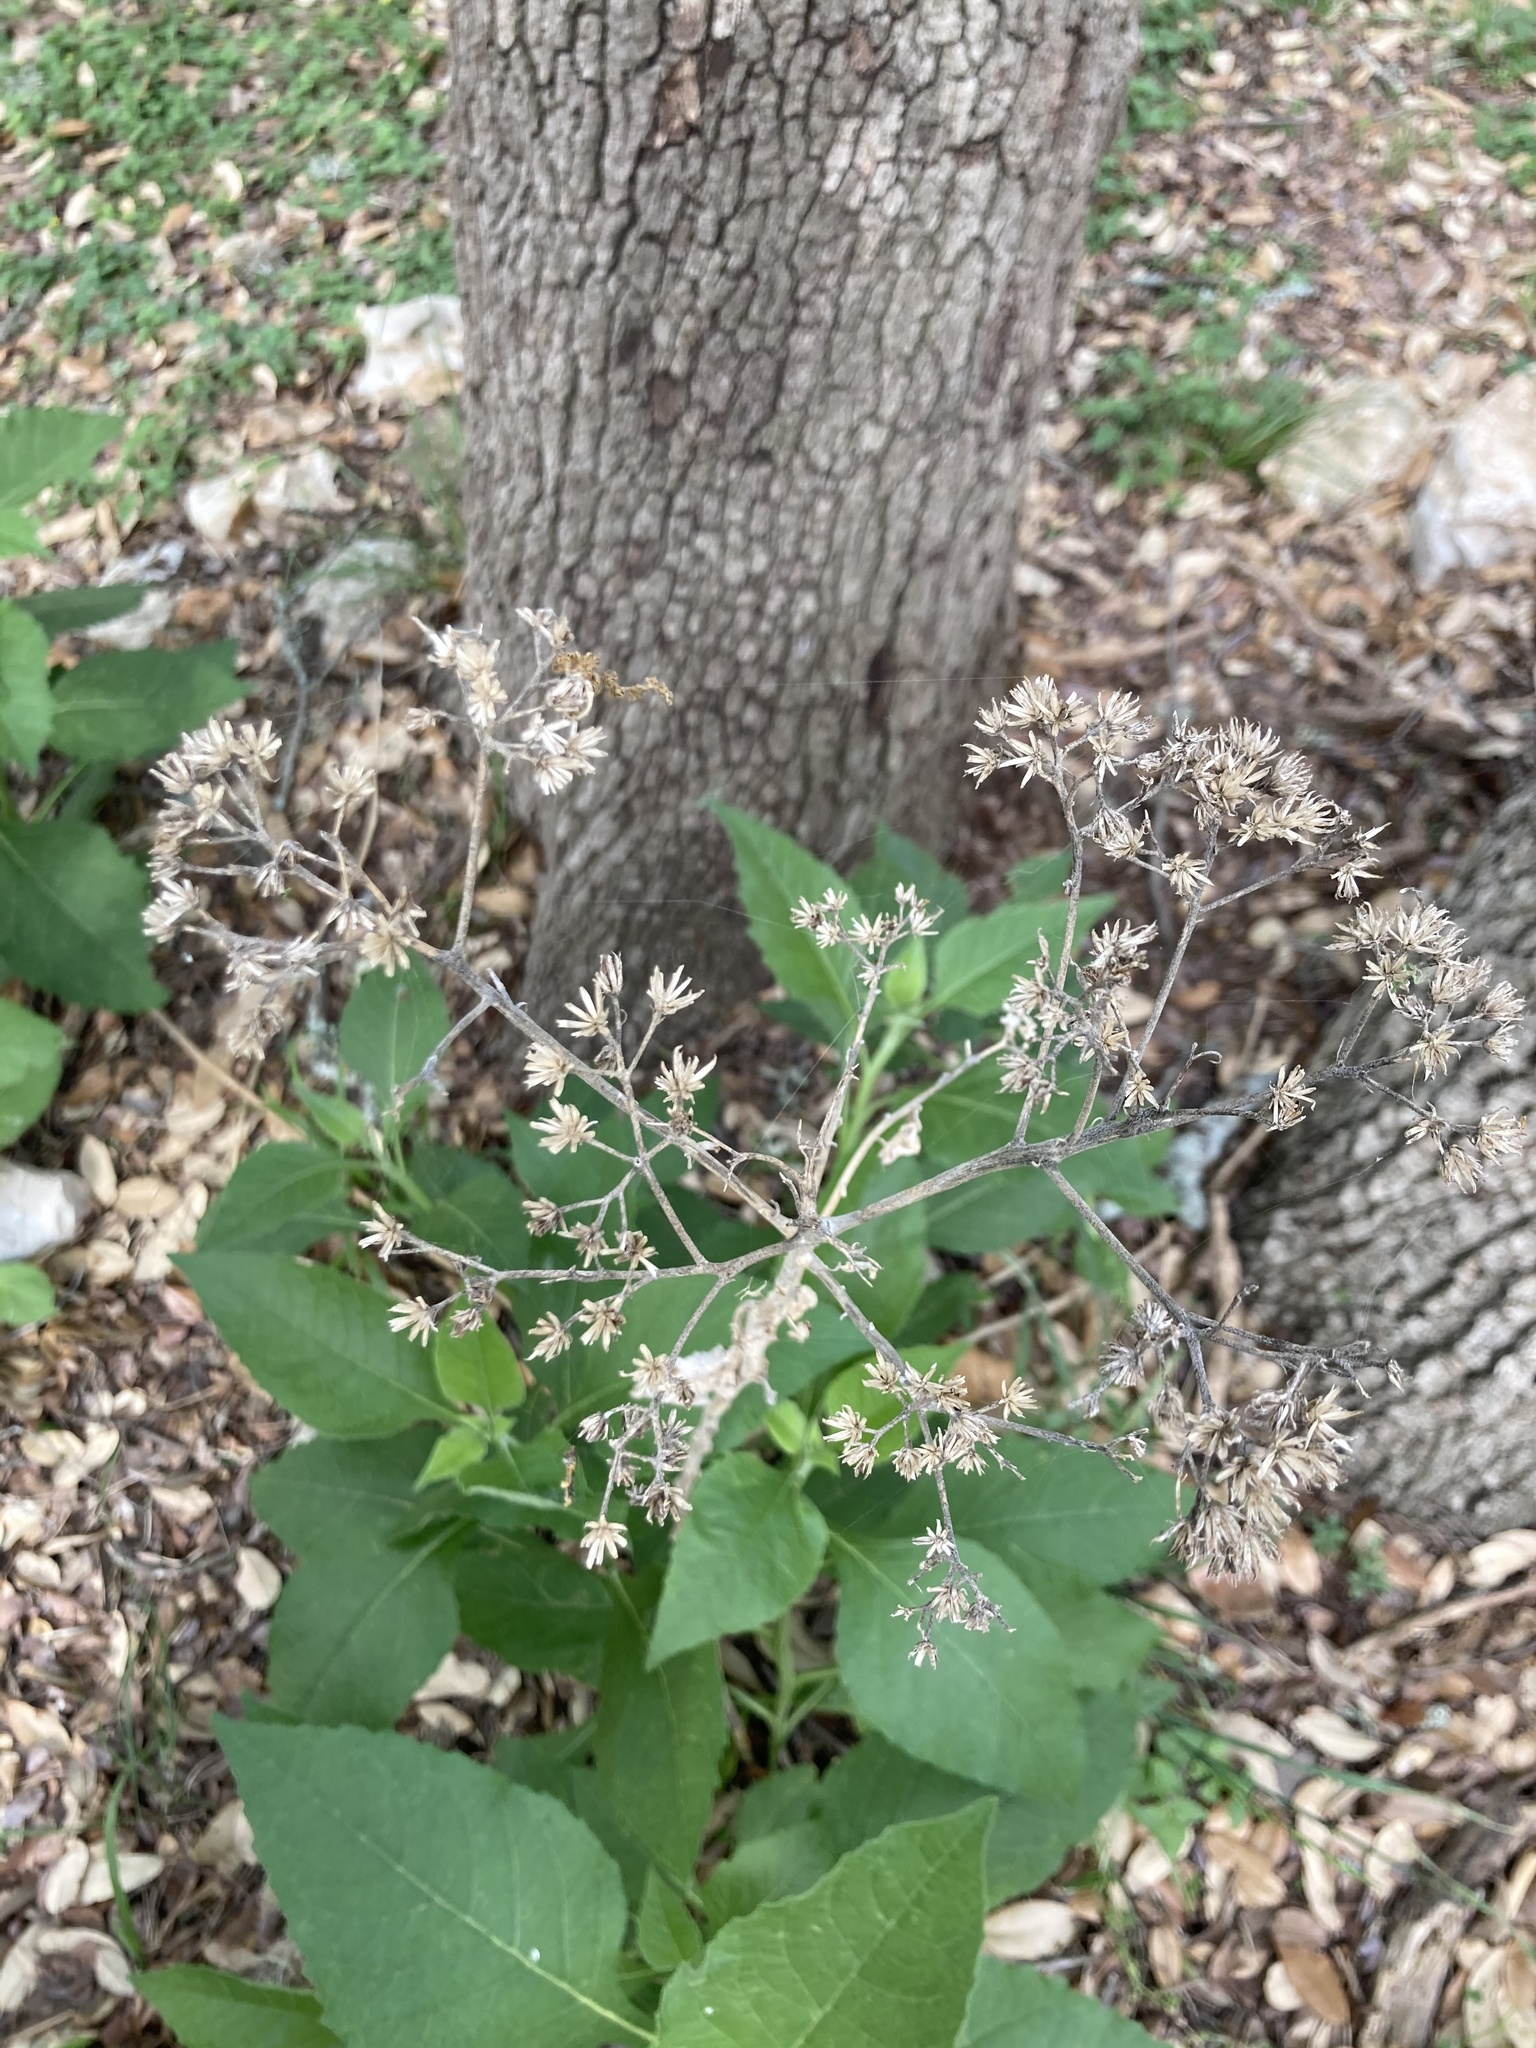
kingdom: Plantae
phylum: Tracheophyta
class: Magnoliopsida
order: Asterales
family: Asteraceae
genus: Verbesina
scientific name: Verbesina virginica
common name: Frostweed
